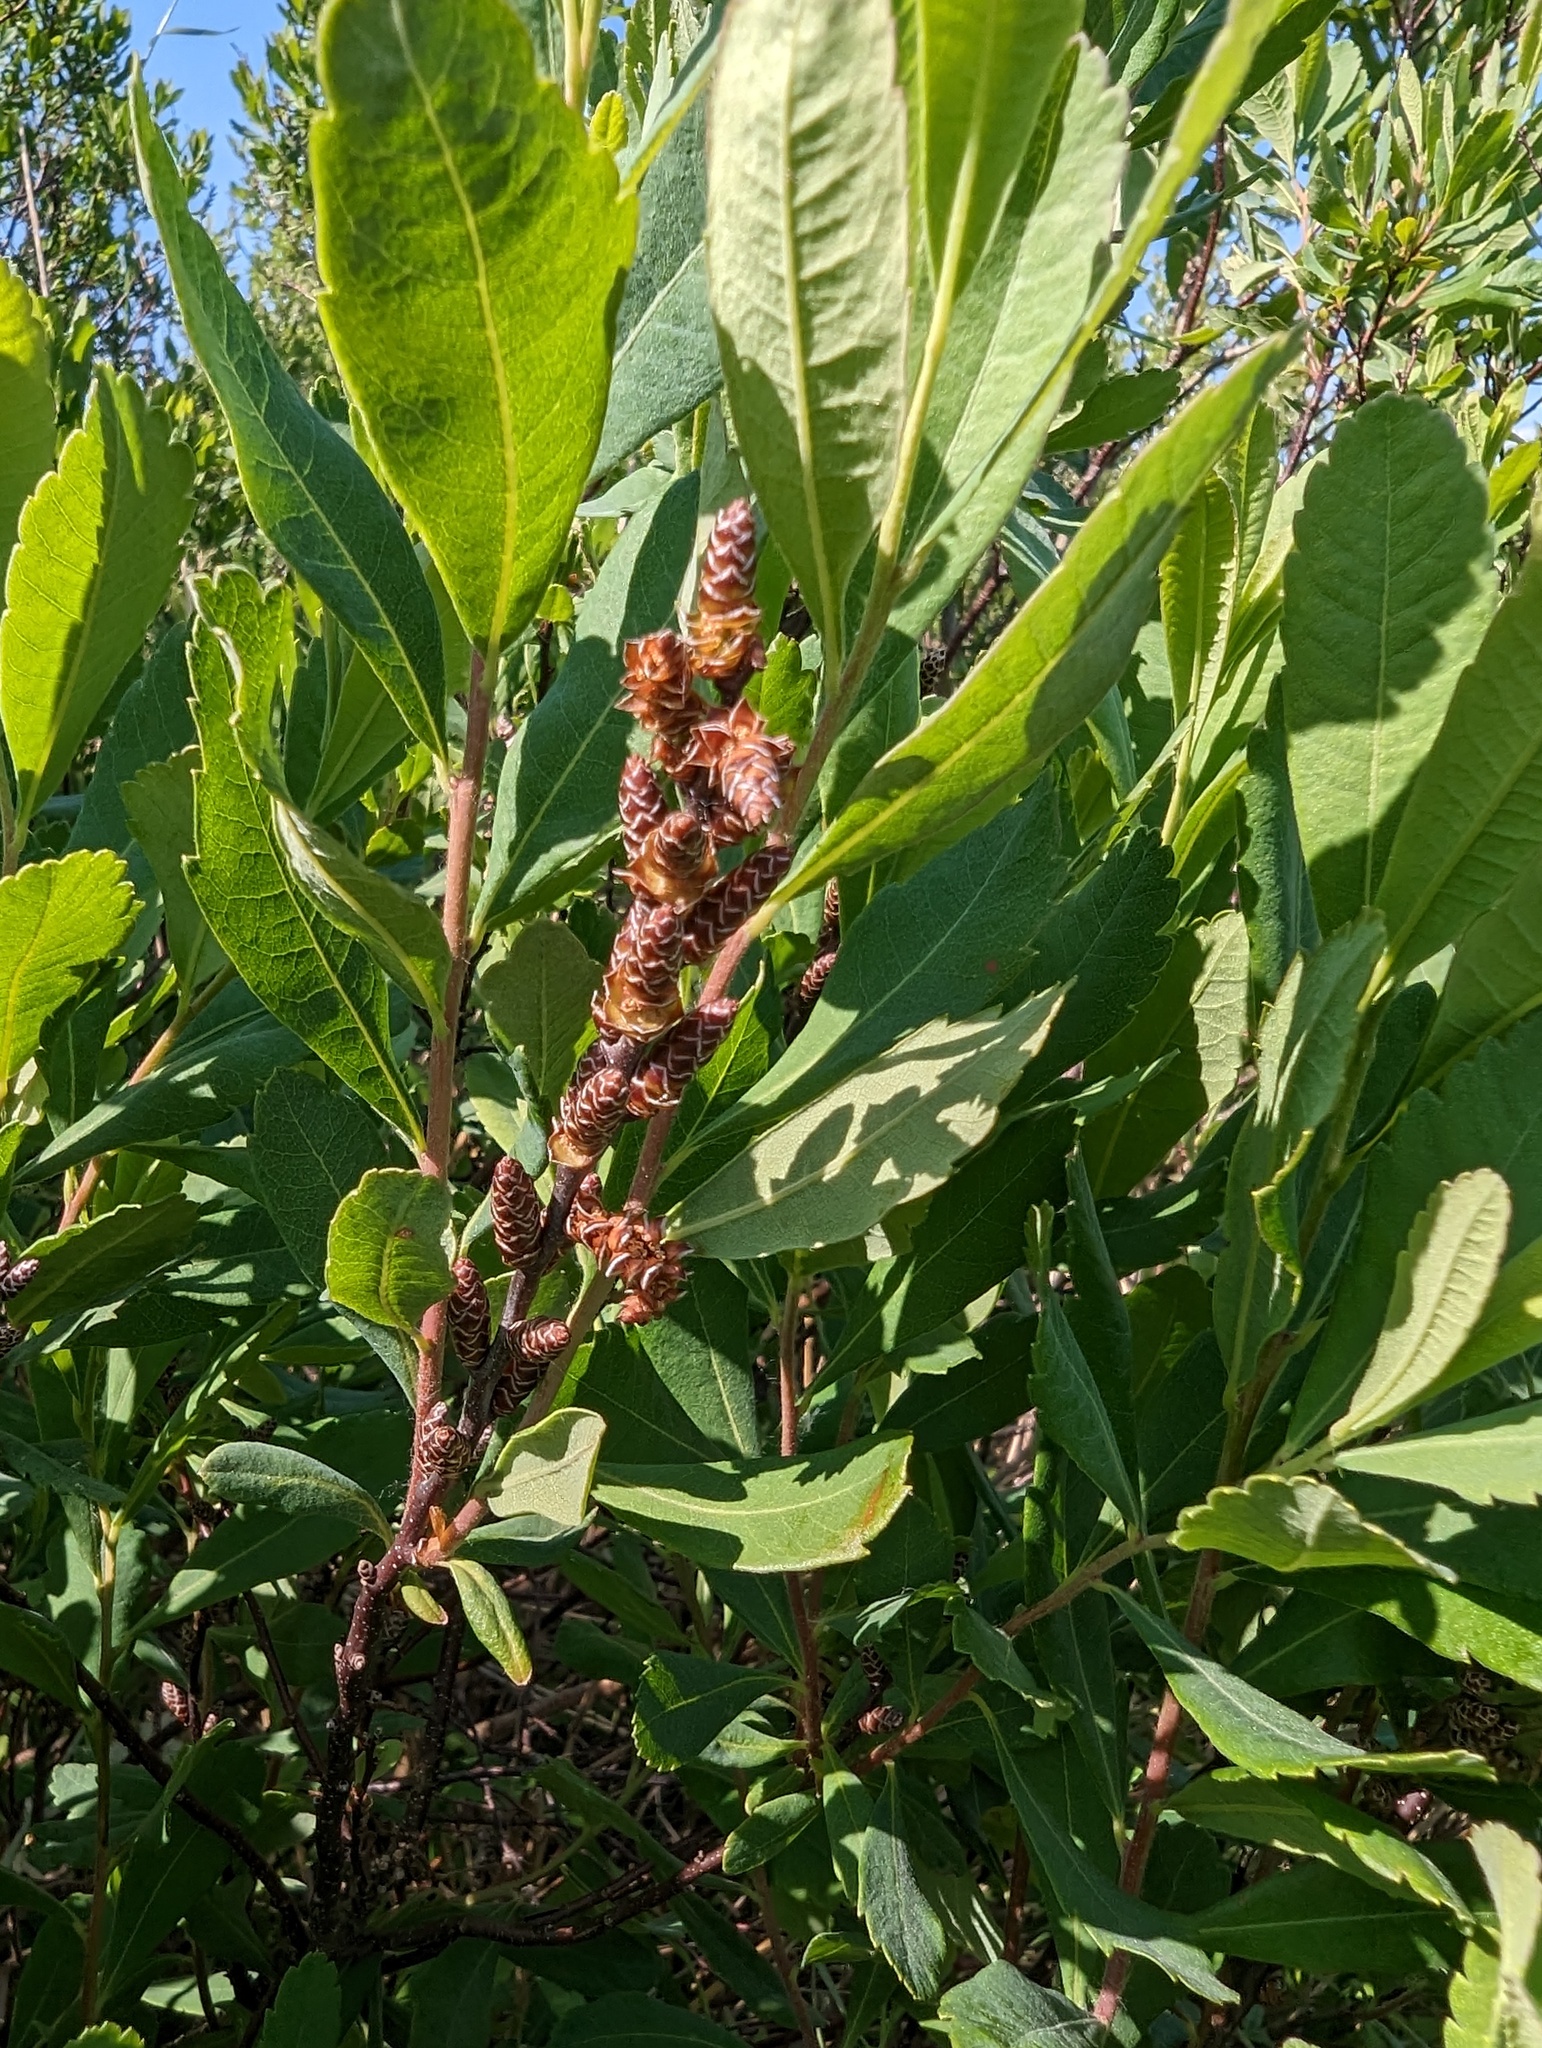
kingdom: Plantae
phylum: Tracheophyta
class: Magnoliopsida
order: Fagales
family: Myricaceae
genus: Myrica
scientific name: Myrica gale
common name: Sweet gale
